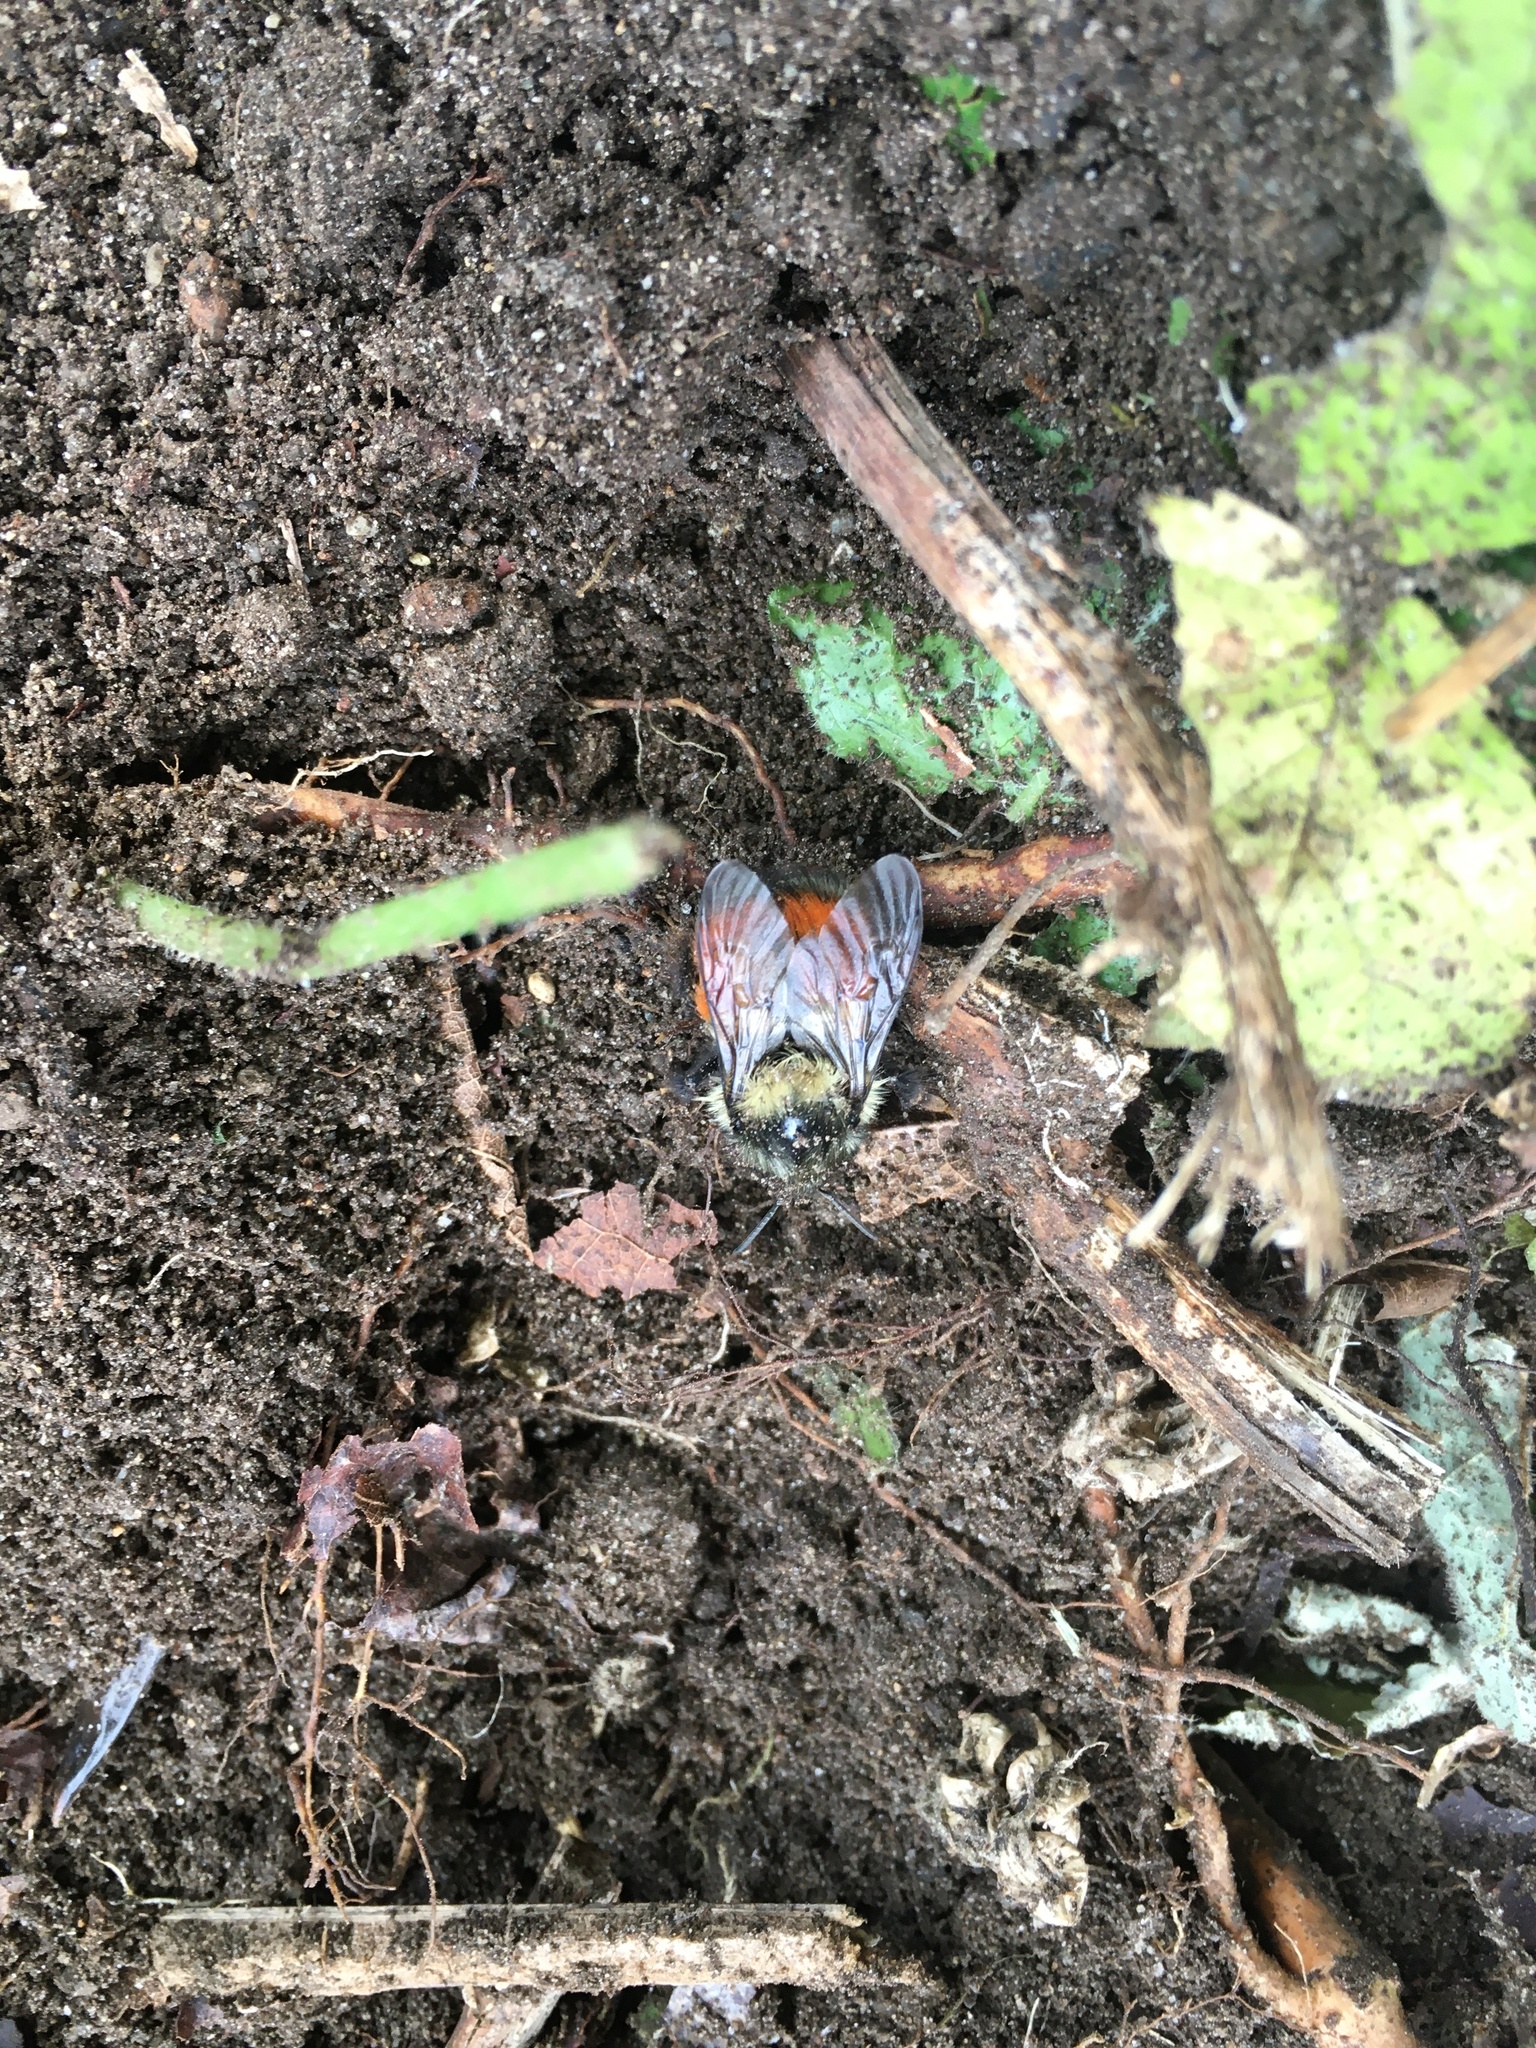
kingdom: Animalia
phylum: Arthropoda
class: Insecta
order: Hymenoptera
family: Apidae
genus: Bombus
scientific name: Bombus melanopygus
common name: Black tail bumble bee
